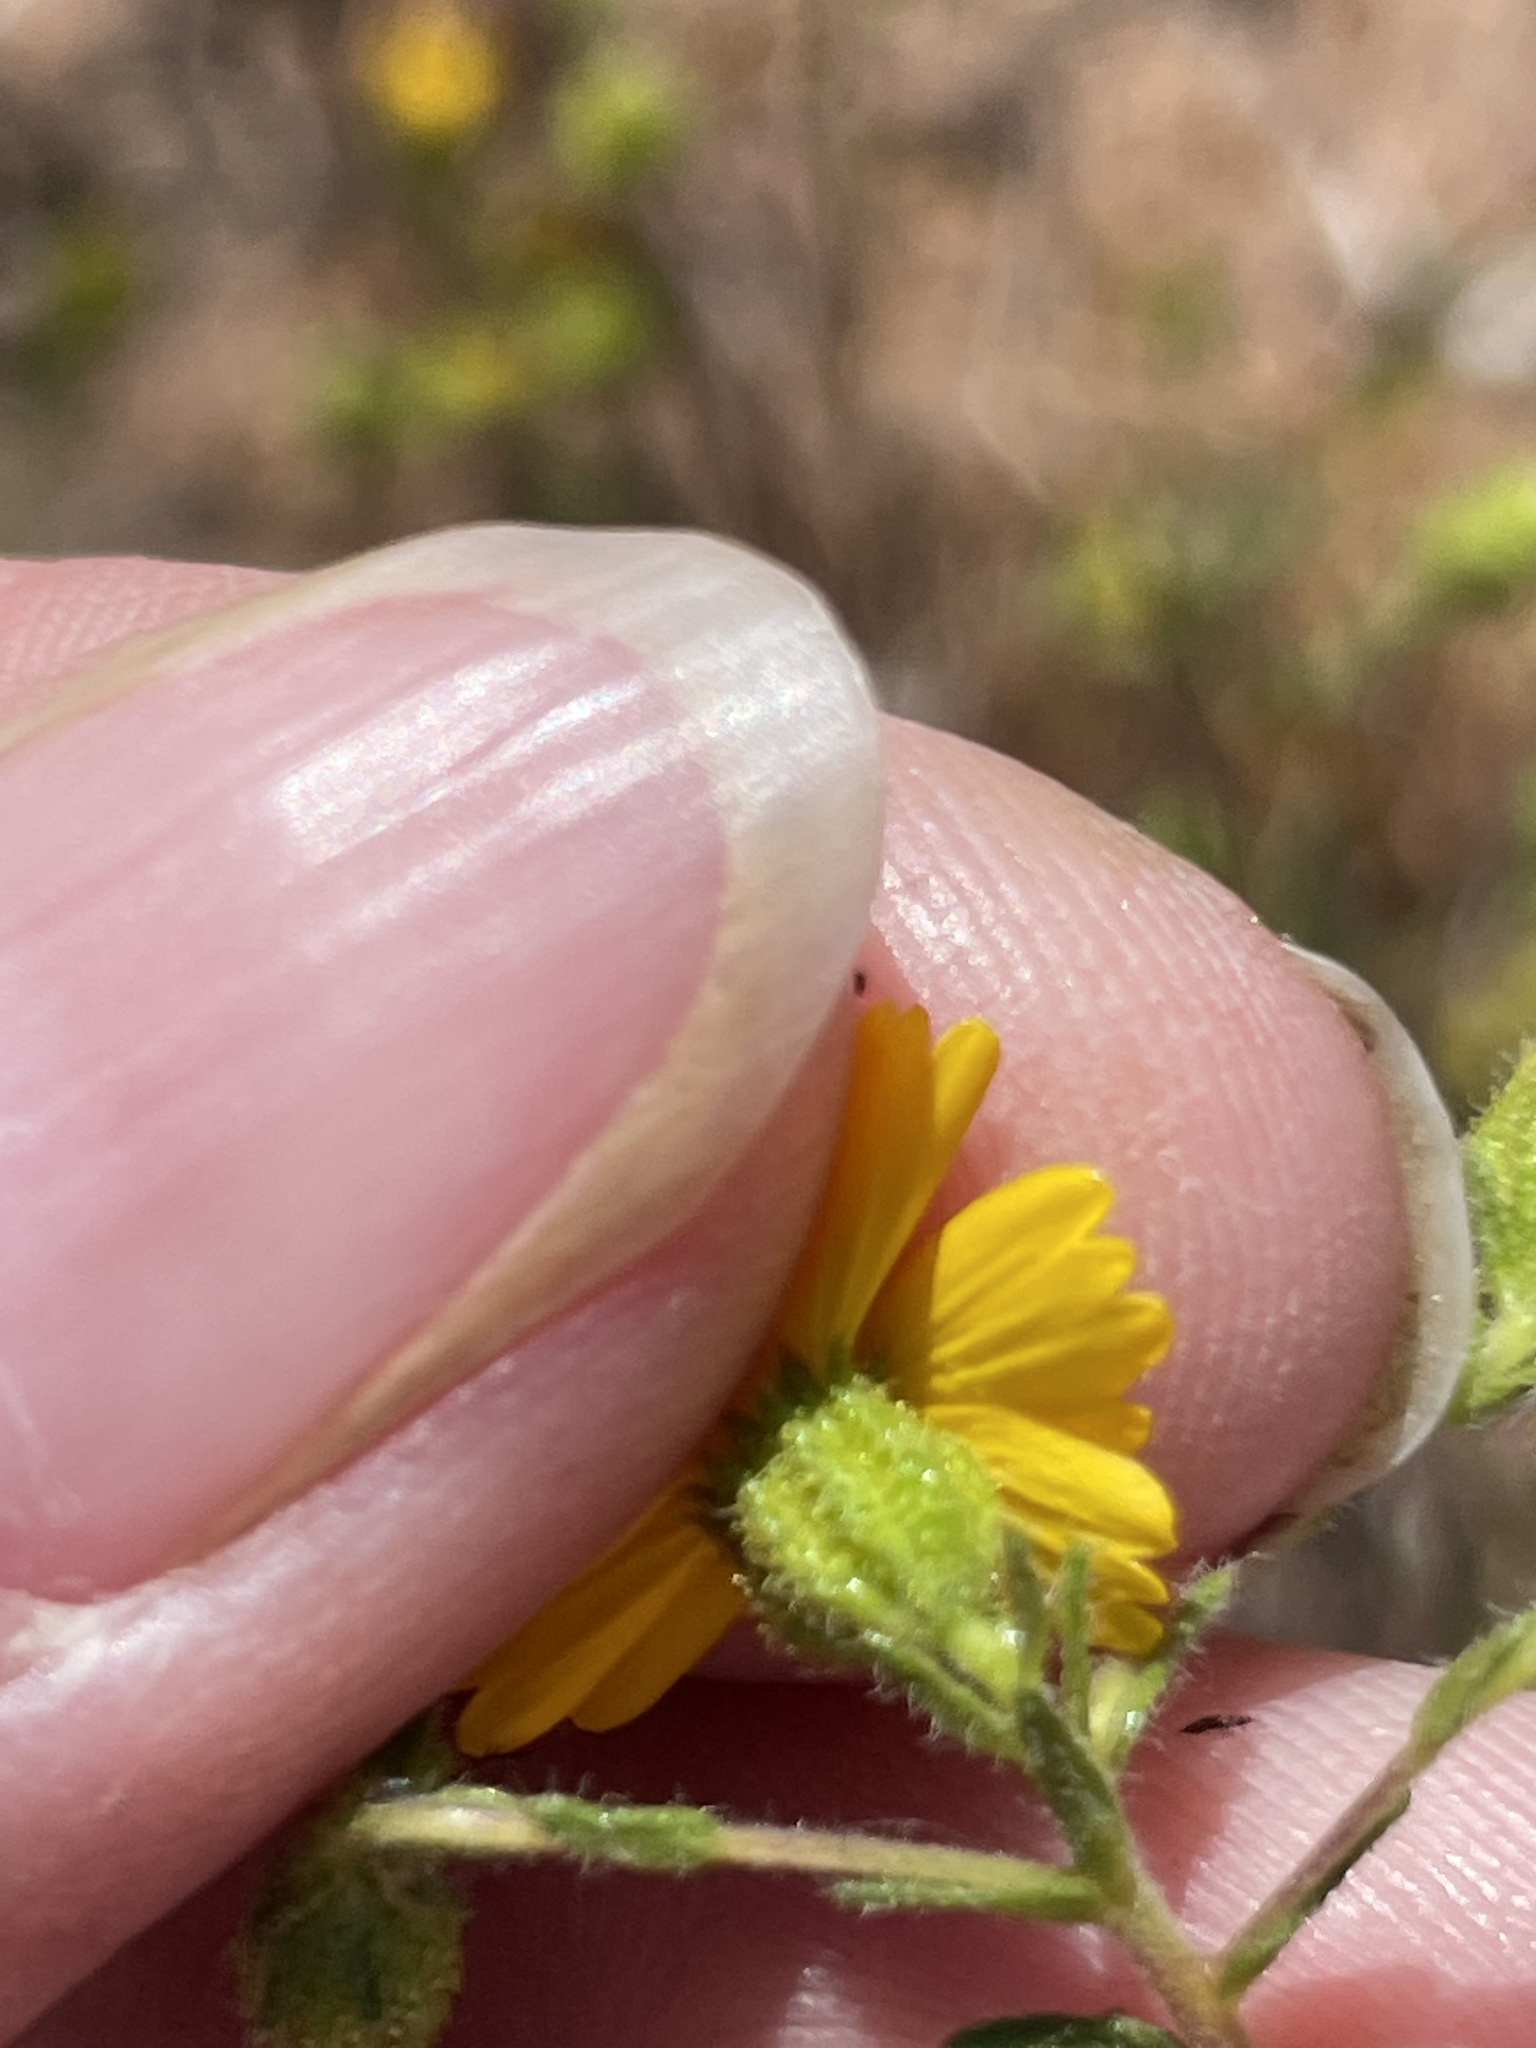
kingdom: Plantae
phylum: Tracheophyta
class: Magnoliopsida
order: Asterales
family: Asteraceae
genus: Deinandra
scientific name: Deinandra conjugens
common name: Otay tarplant
